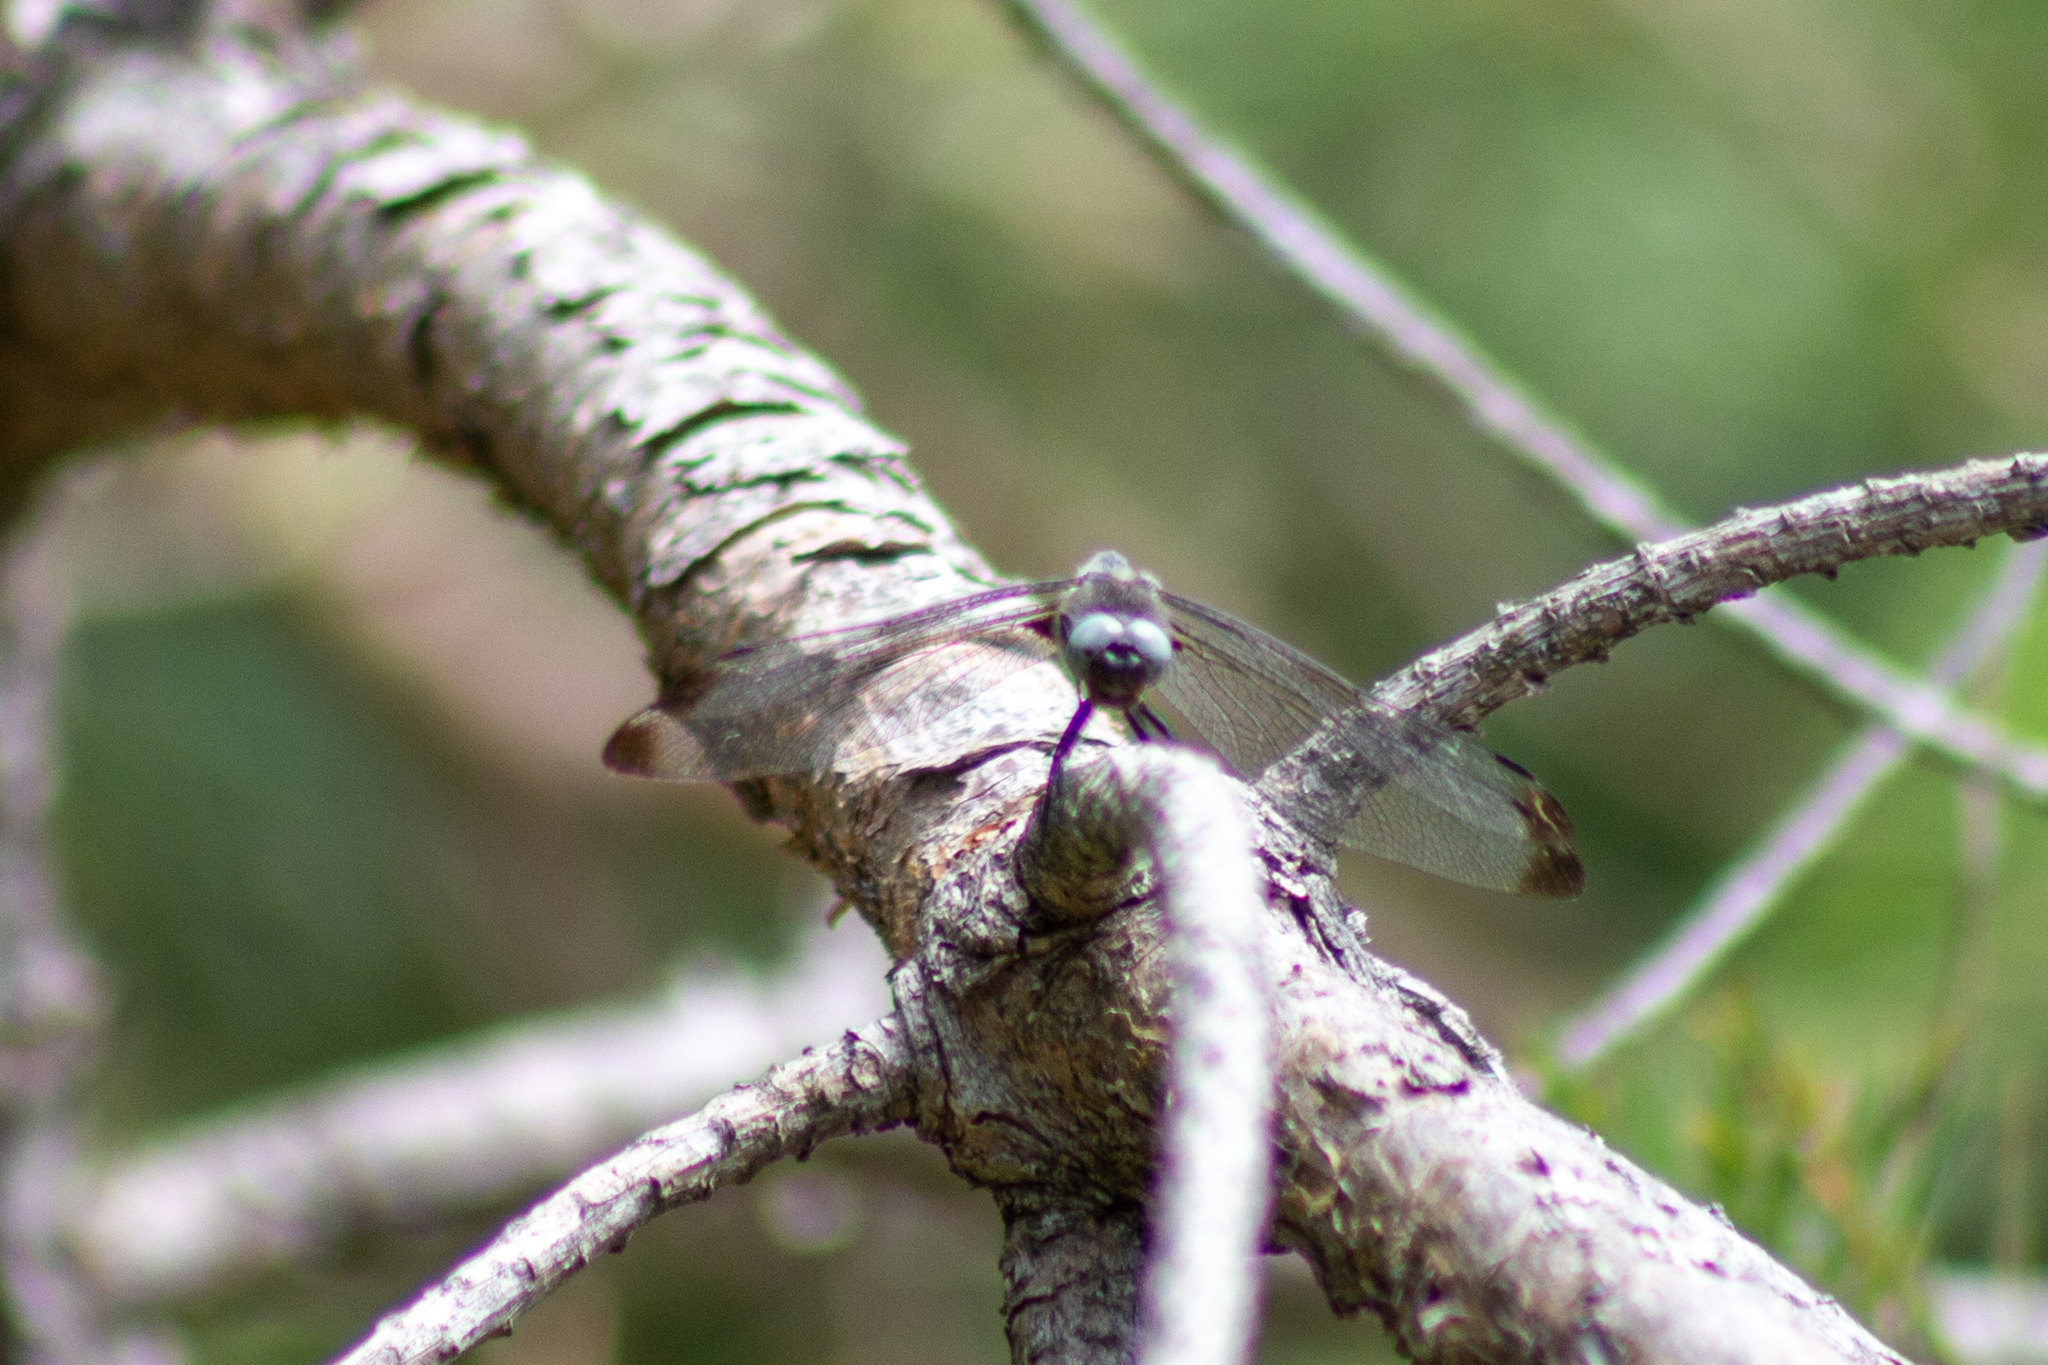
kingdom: Animalia
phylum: Arthropoda
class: Insecta
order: Odonata
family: Libellulidae
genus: Libellula
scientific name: Libellula fulva
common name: Blue chaser
